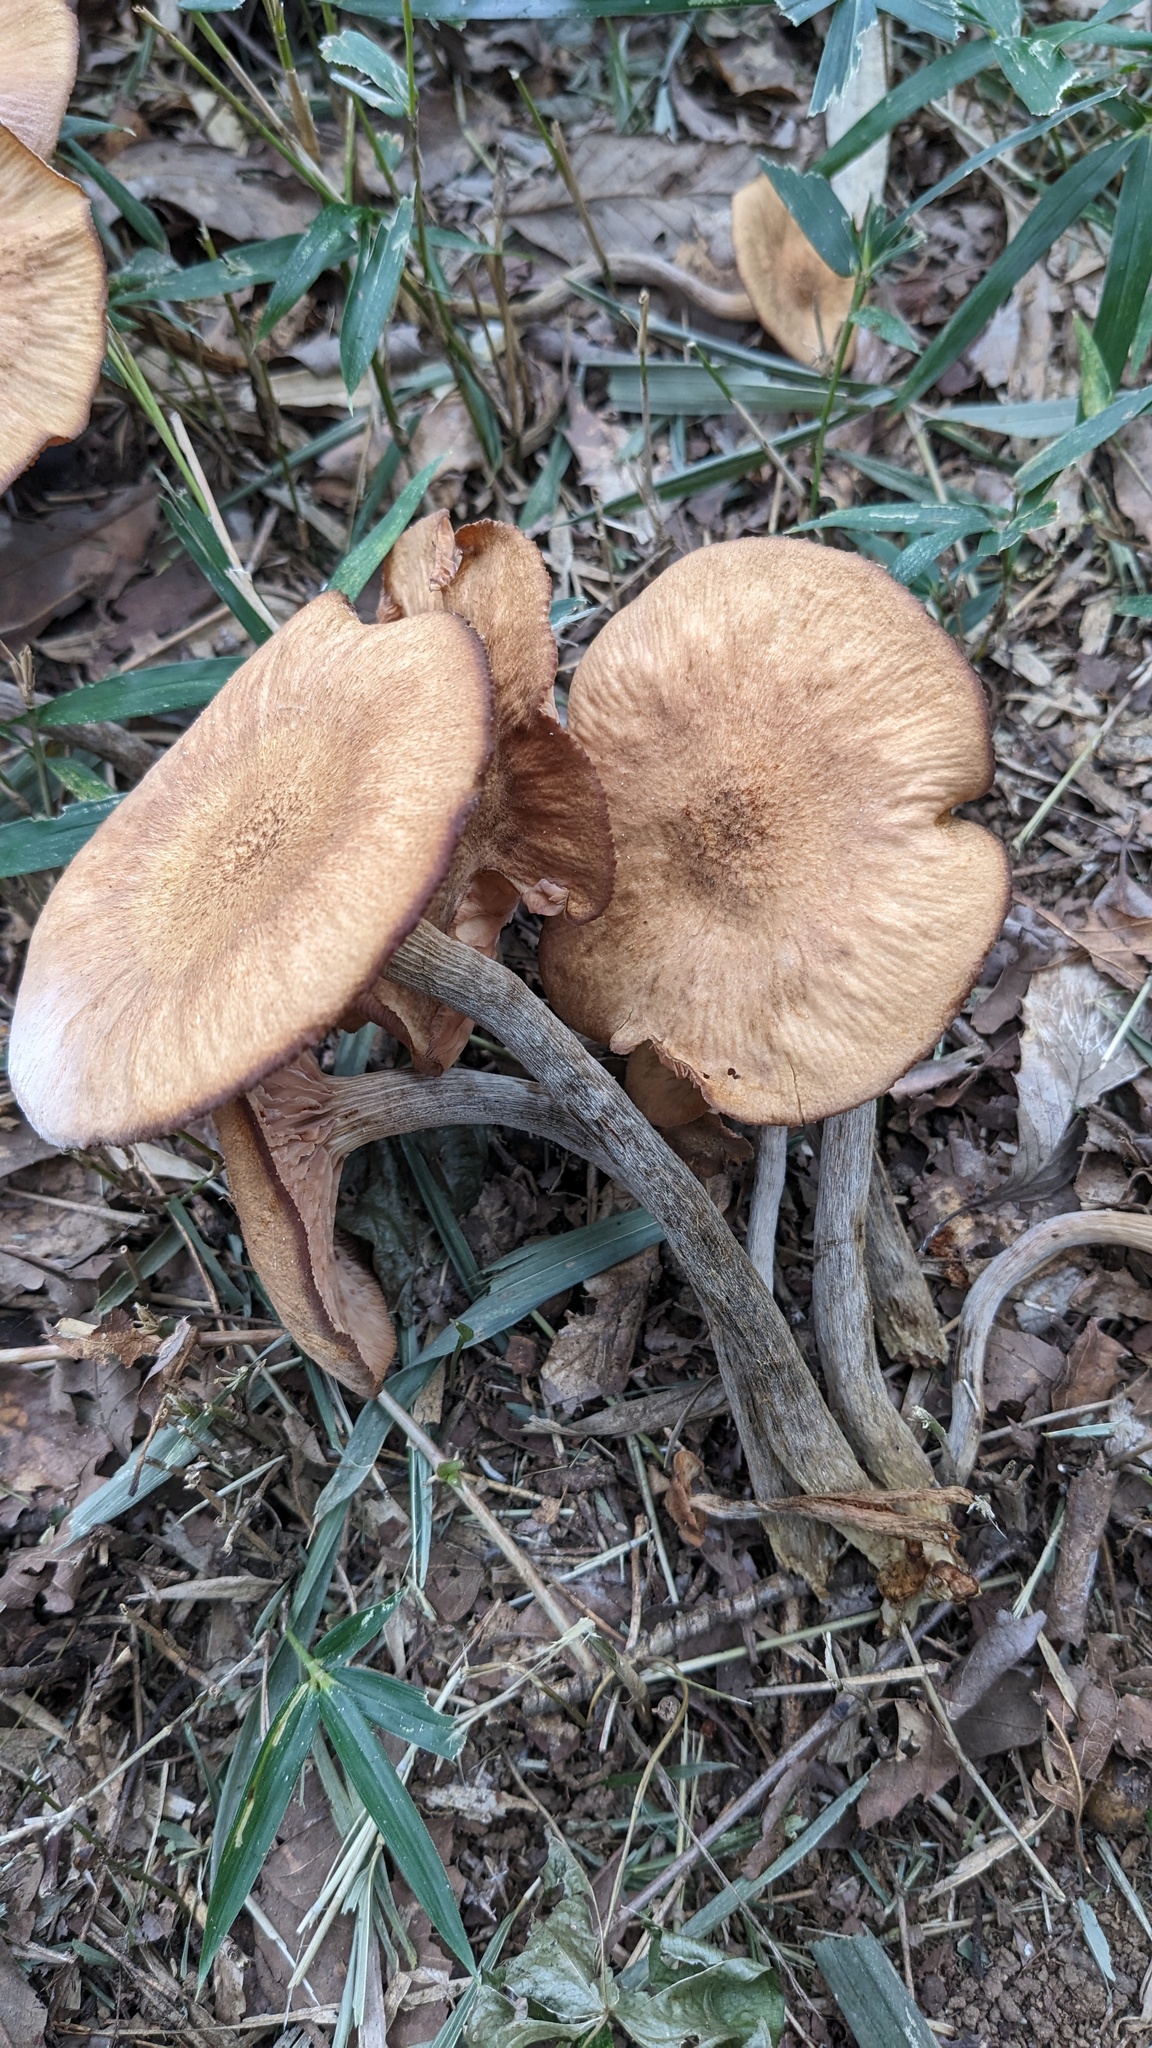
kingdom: Fungi
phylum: Basidiomycota
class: Agaricomycetes
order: Agaricales
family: Physalacriaceae
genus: Desarmillaria
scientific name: Desarmillaria tabescens
